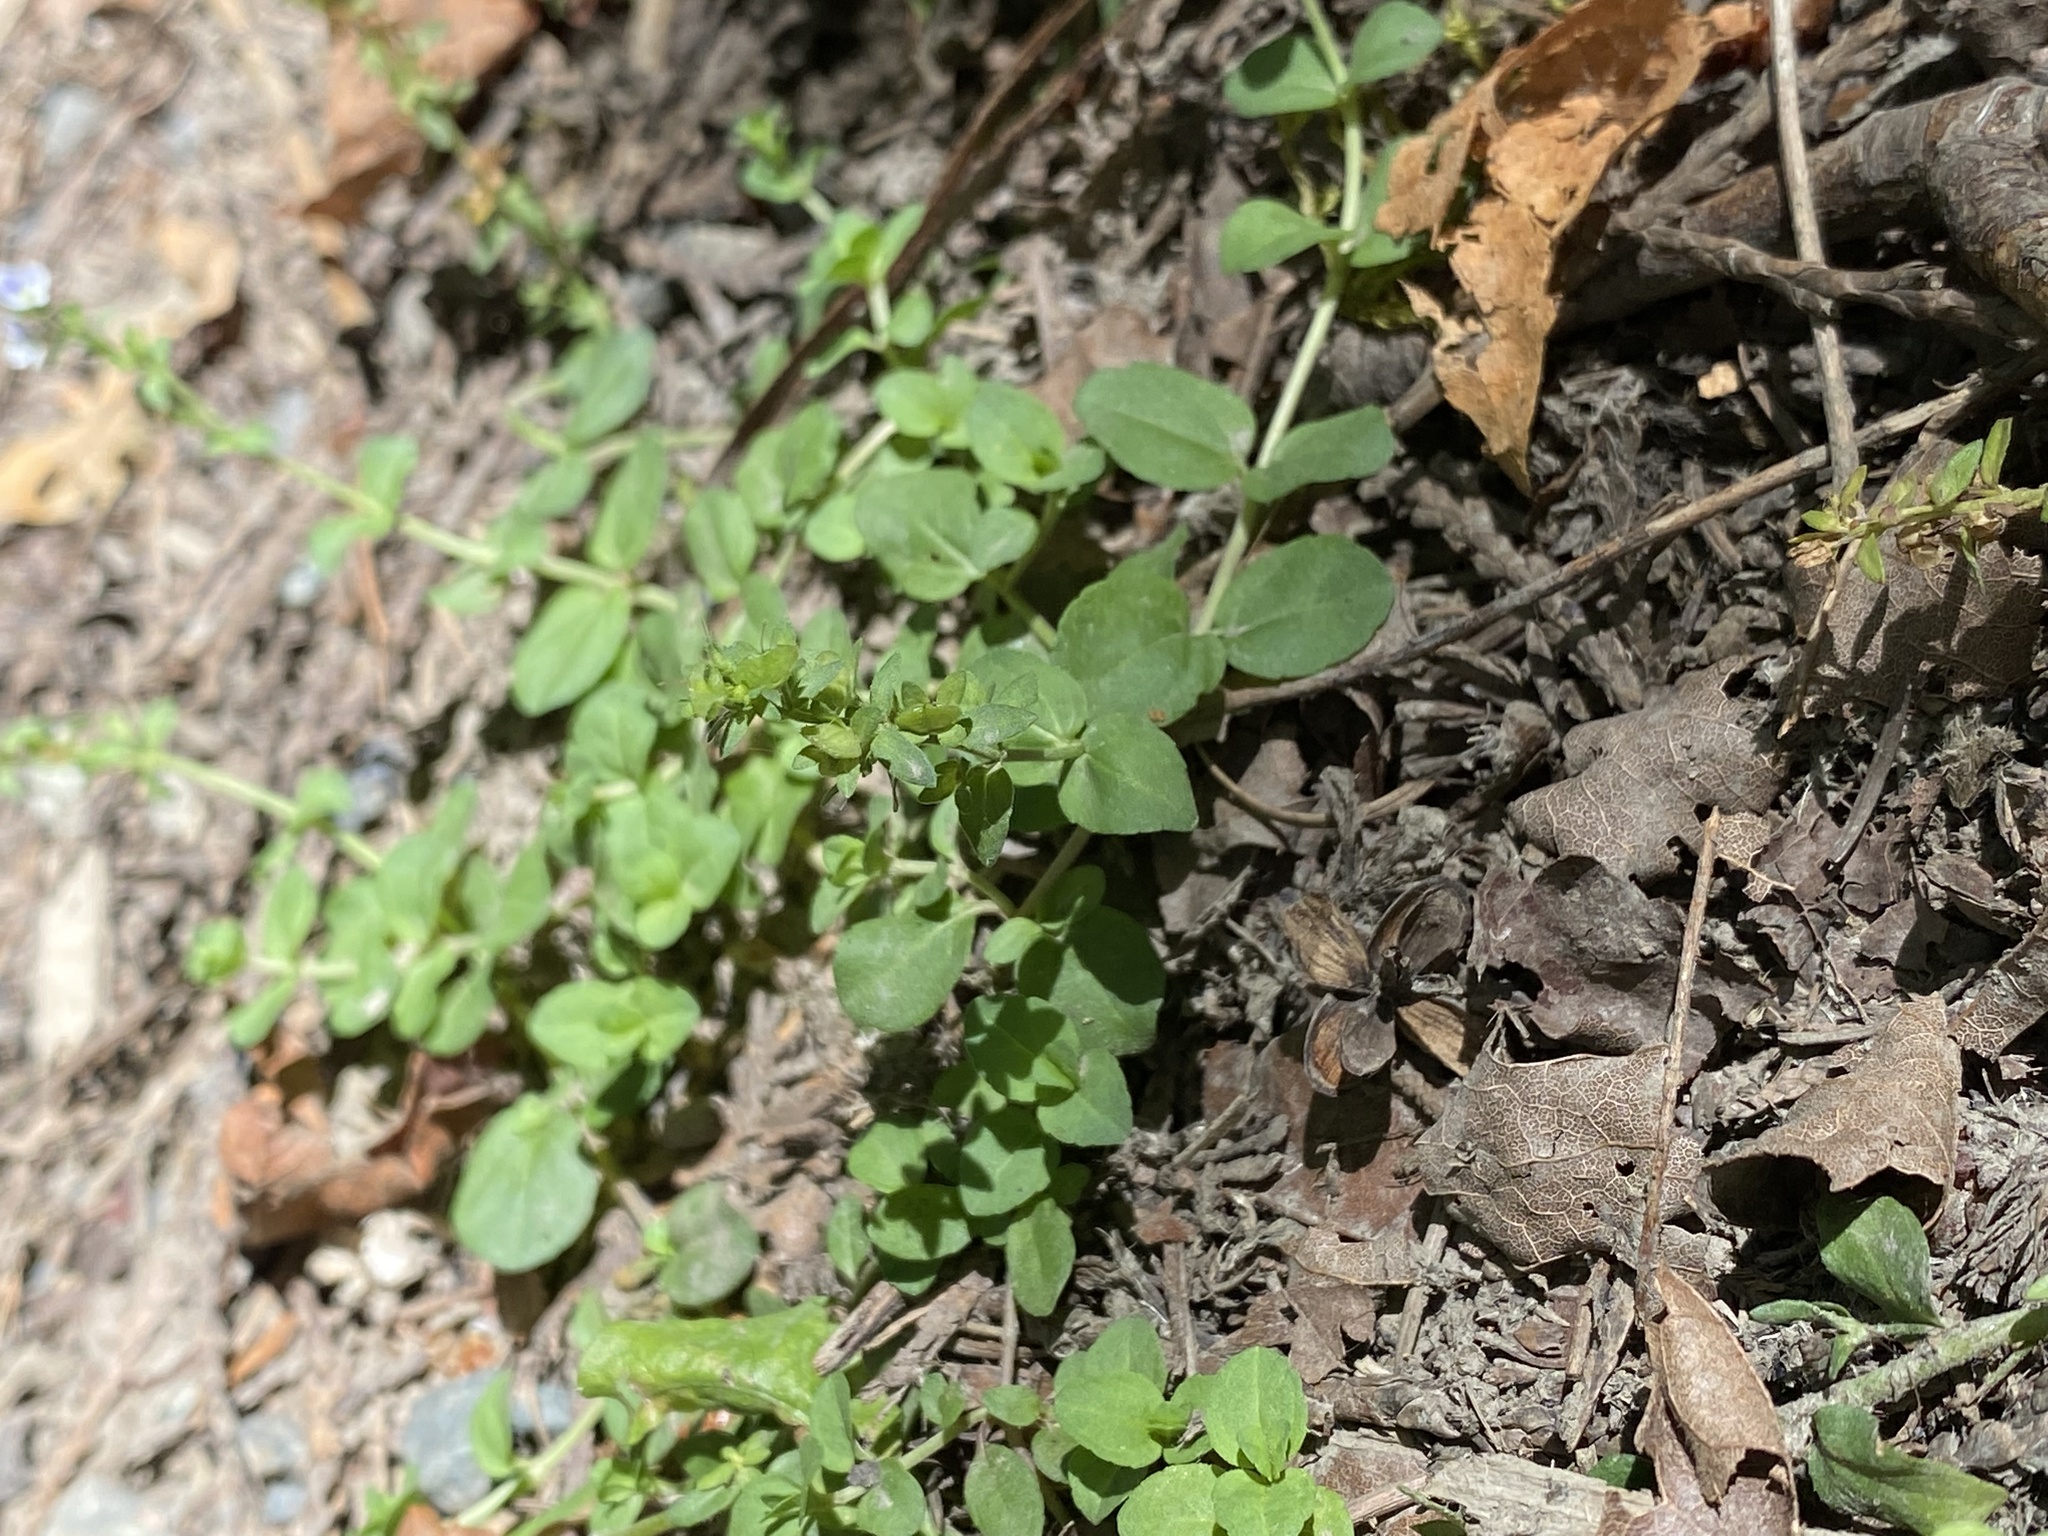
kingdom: Plantae
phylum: Tracheophyta
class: Magnoliopsida
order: Lamiales
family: Plantaginaceae
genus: Veronica
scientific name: Veronica serpyllifolia
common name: Thyme-leaved speedwell
